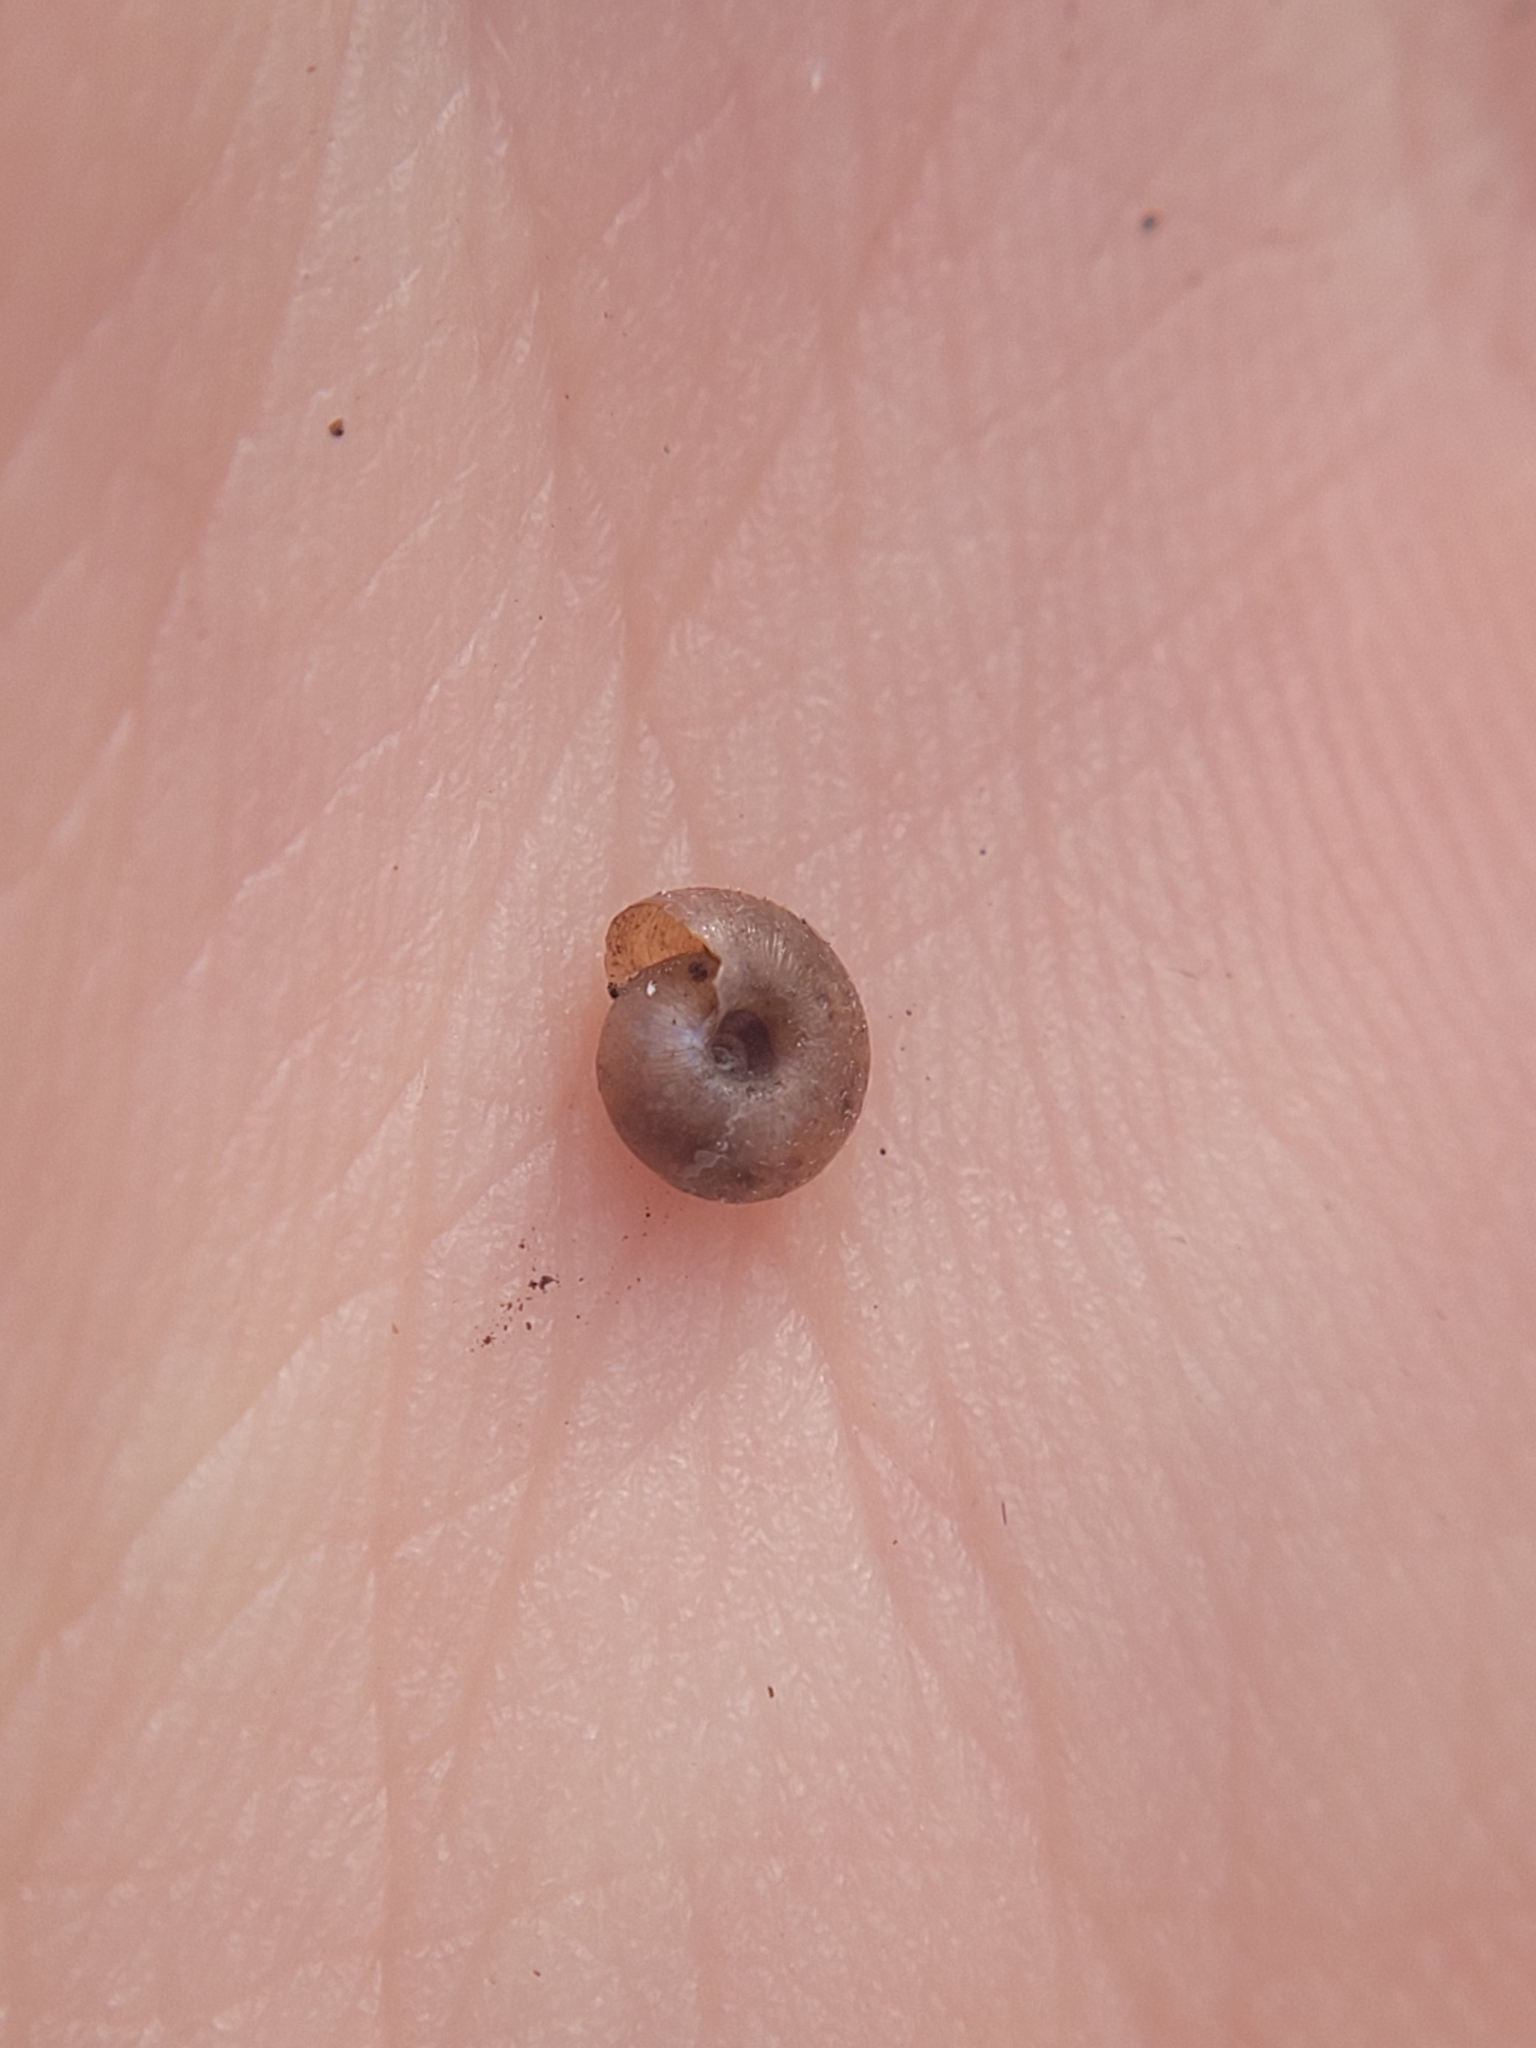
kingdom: Animalia
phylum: Mollusca
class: Gastropoda
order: Stylommatophora
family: Hygromiidae
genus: Trochulus
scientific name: Trochulus hispidus
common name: Hairy snail
